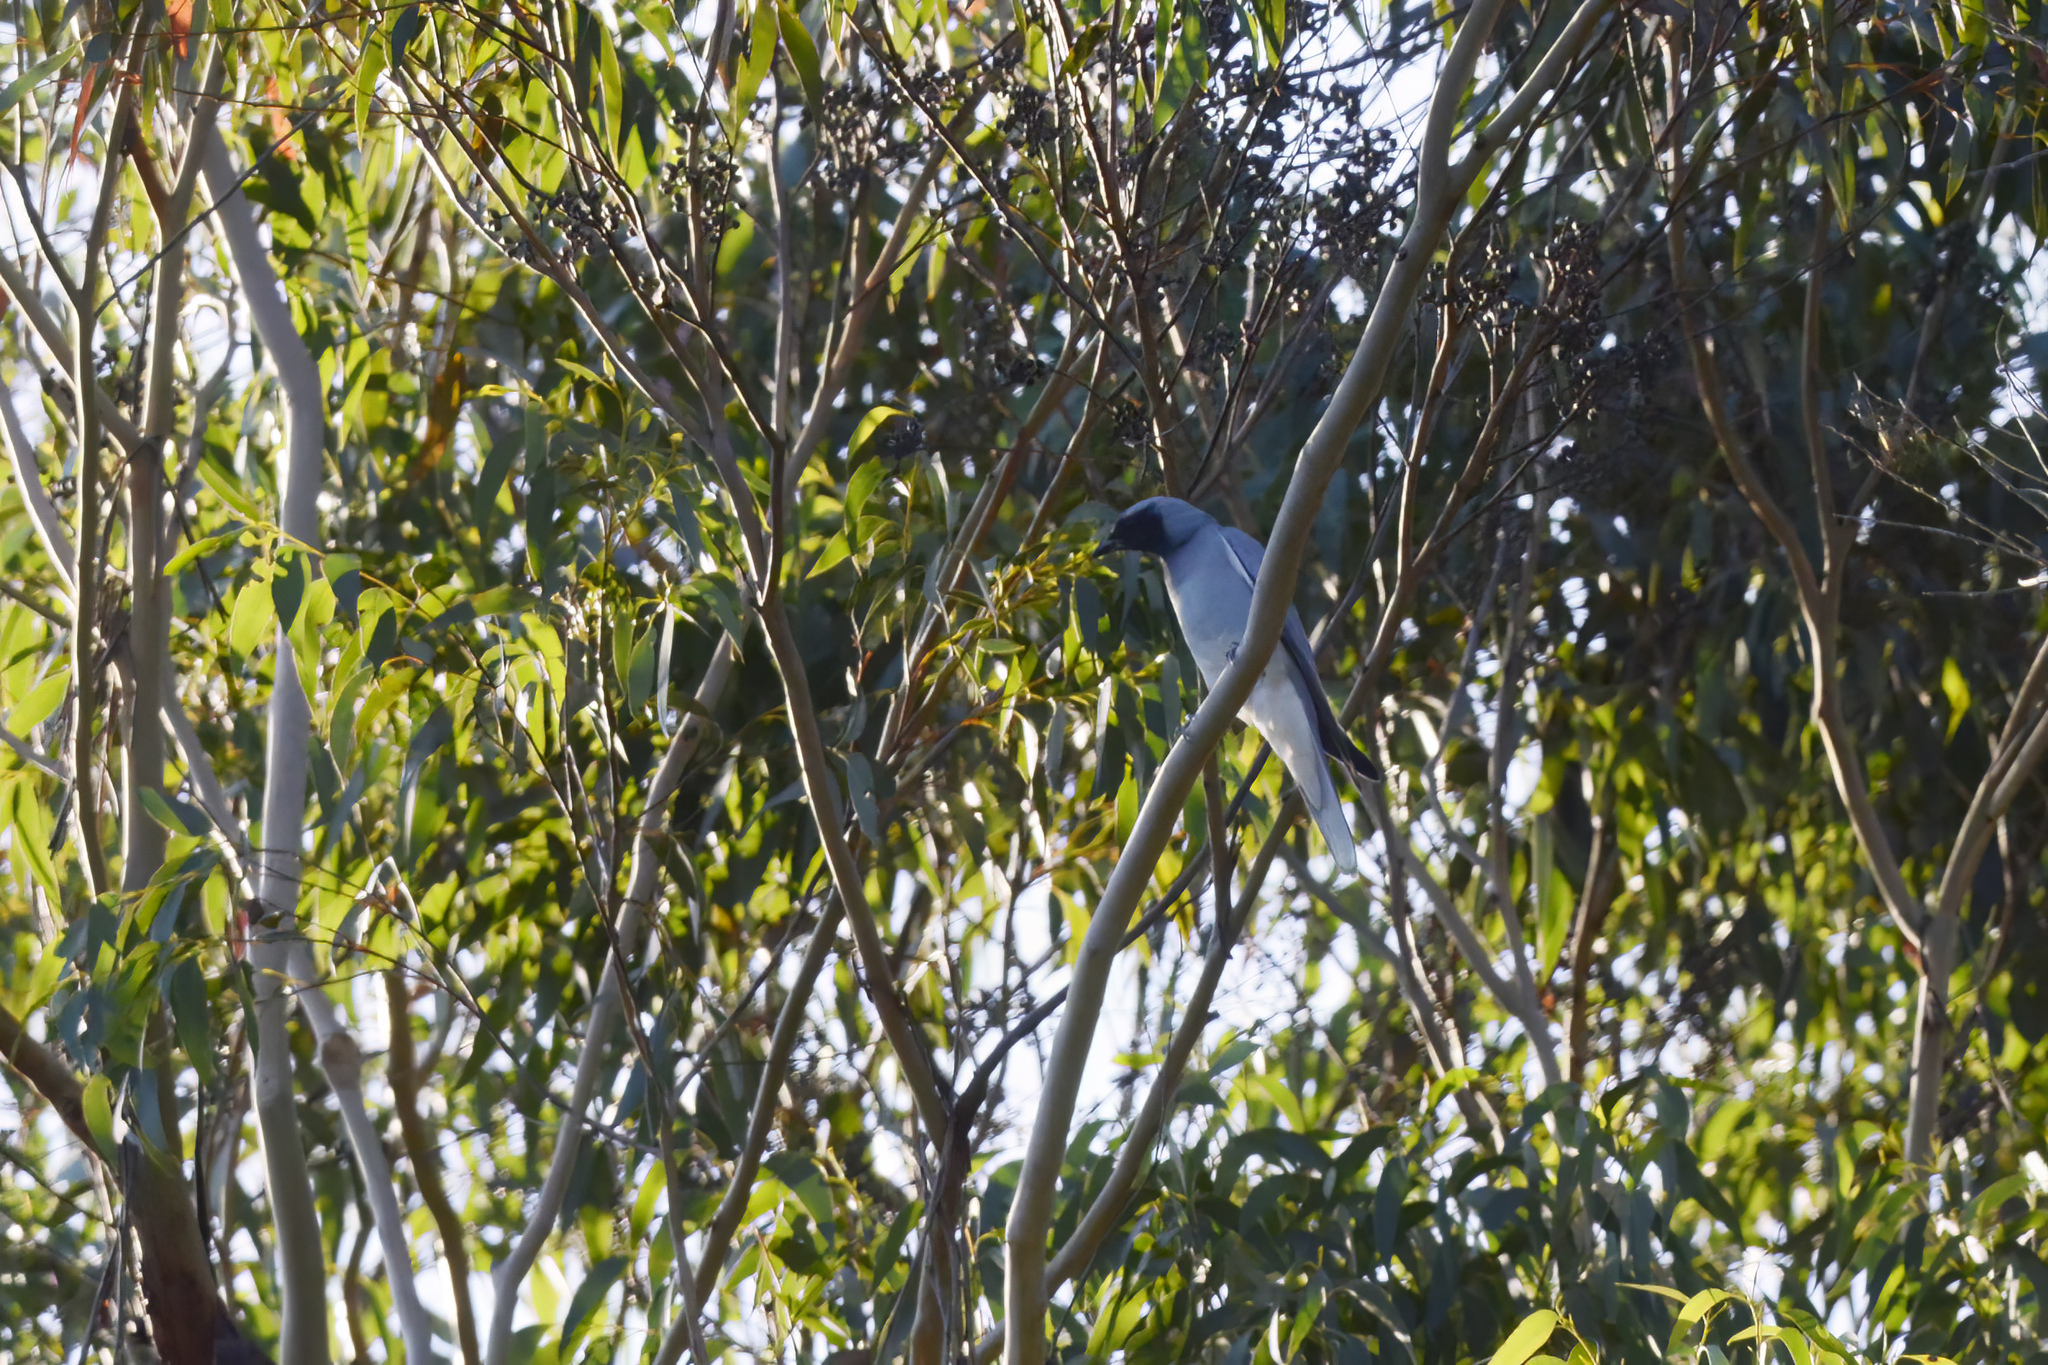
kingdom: Animalia
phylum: Chordata
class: Aves
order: Passeriformes
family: Campephagidae
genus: Coracina
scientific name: Coracina novaehollandiae
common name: Black-faced cuckooshrike
